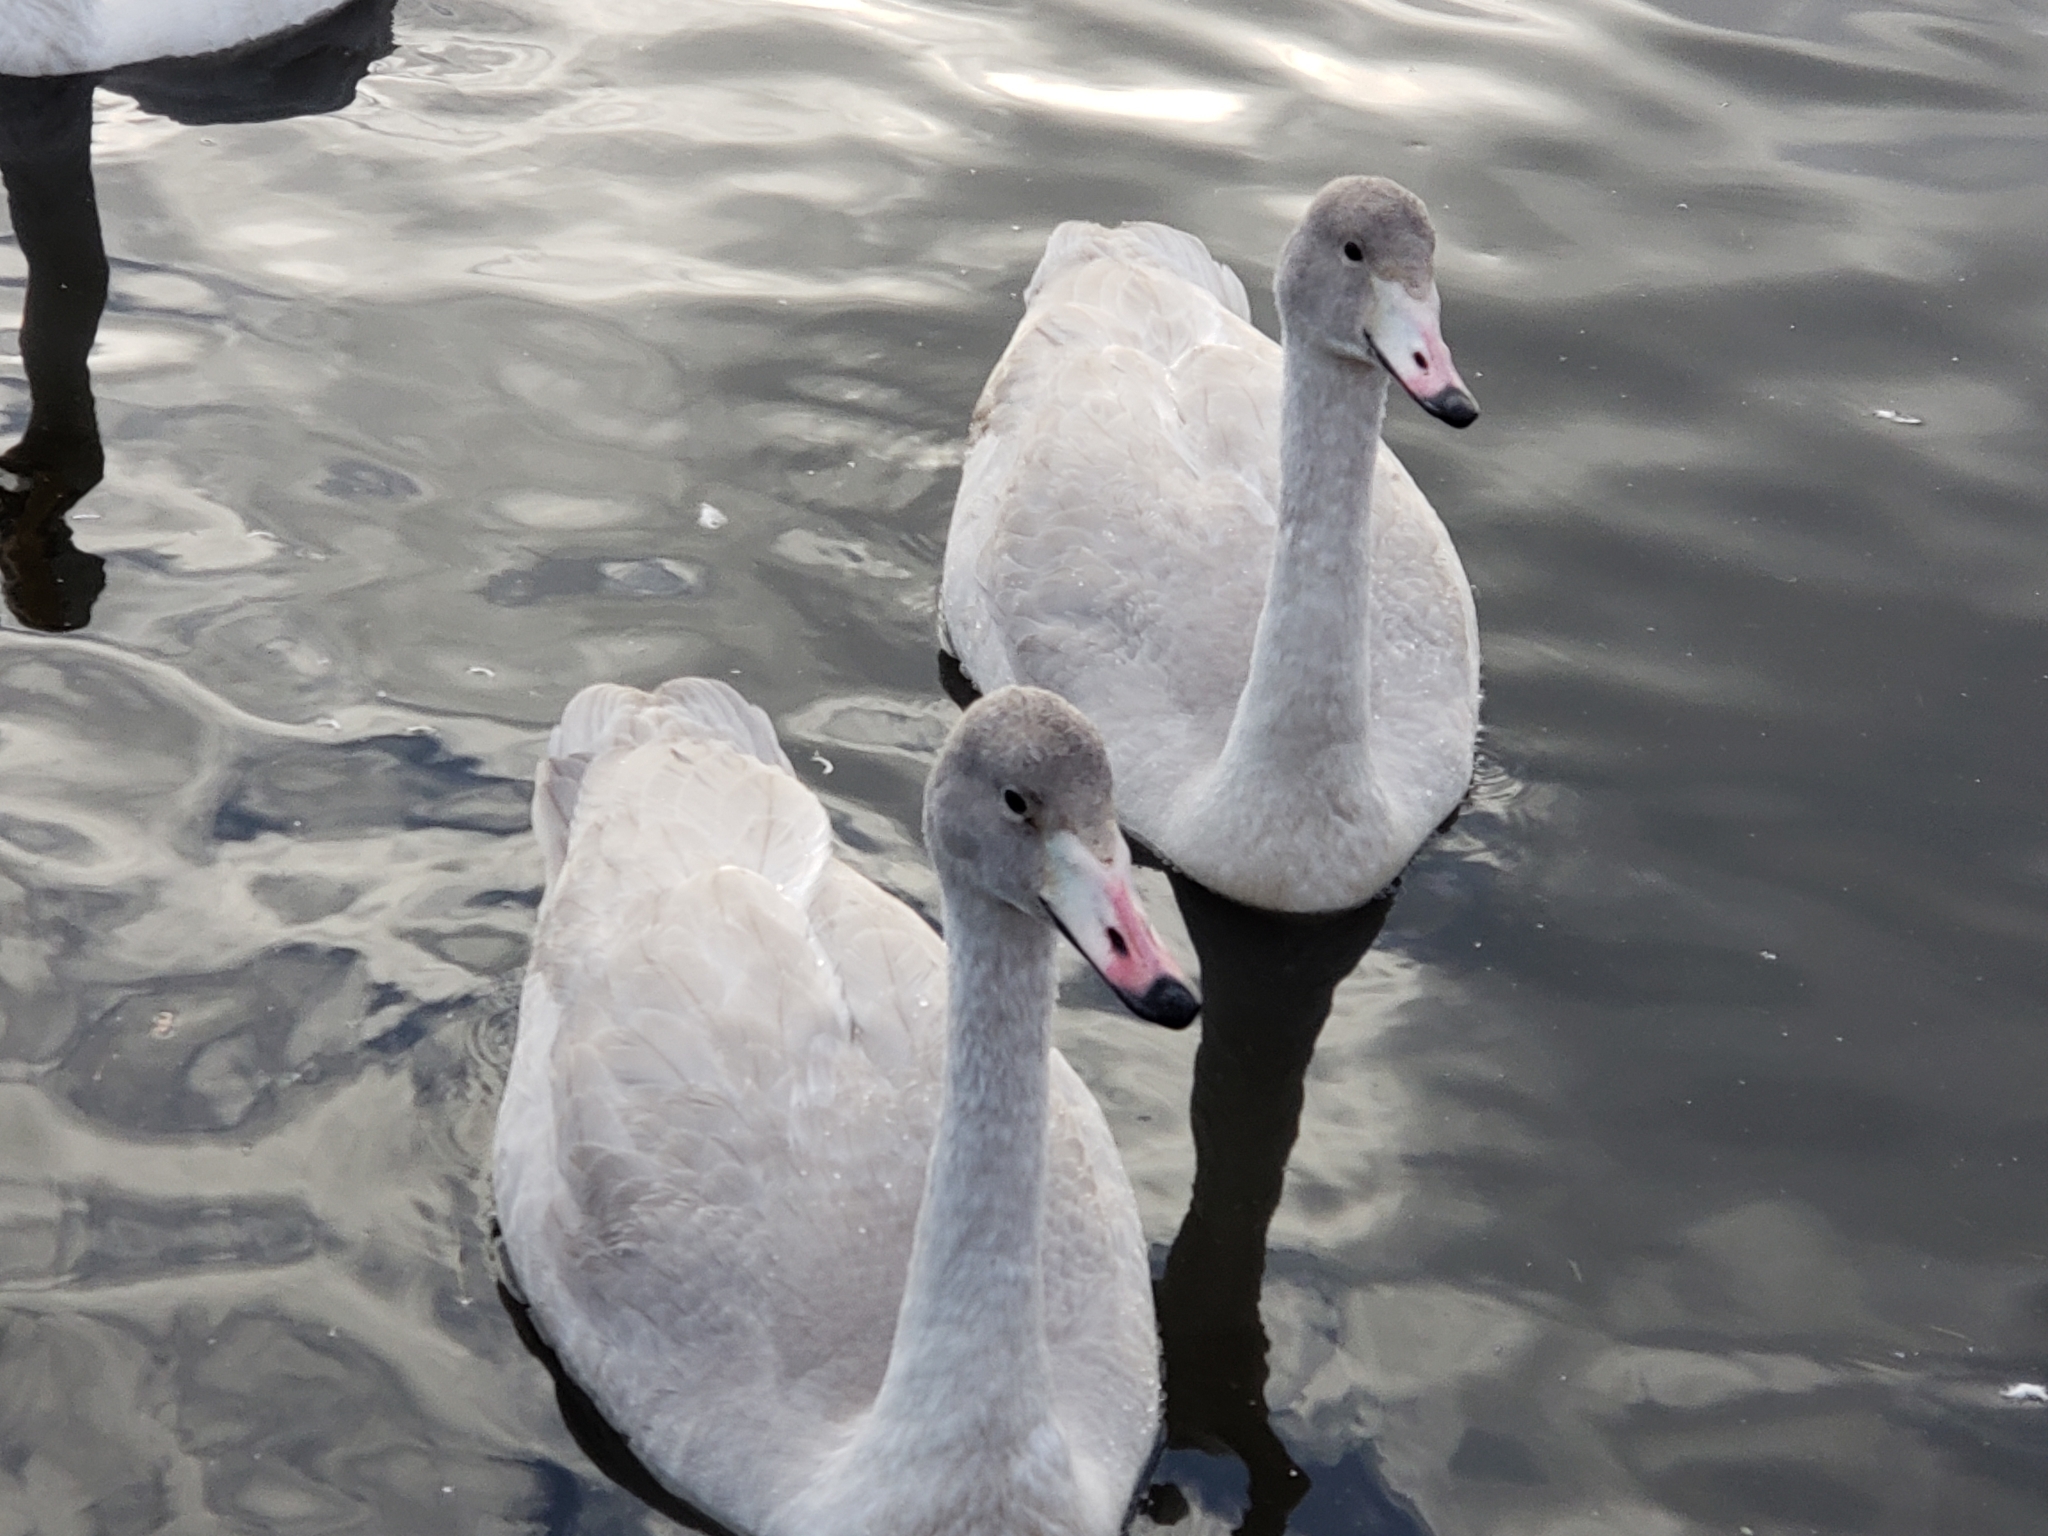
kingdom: Animalia
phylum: Chordata
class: Aves
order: Anseriformes
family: Anatidae
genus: Cygnus
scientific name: Cygnus cygnus
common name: Whooper swan
